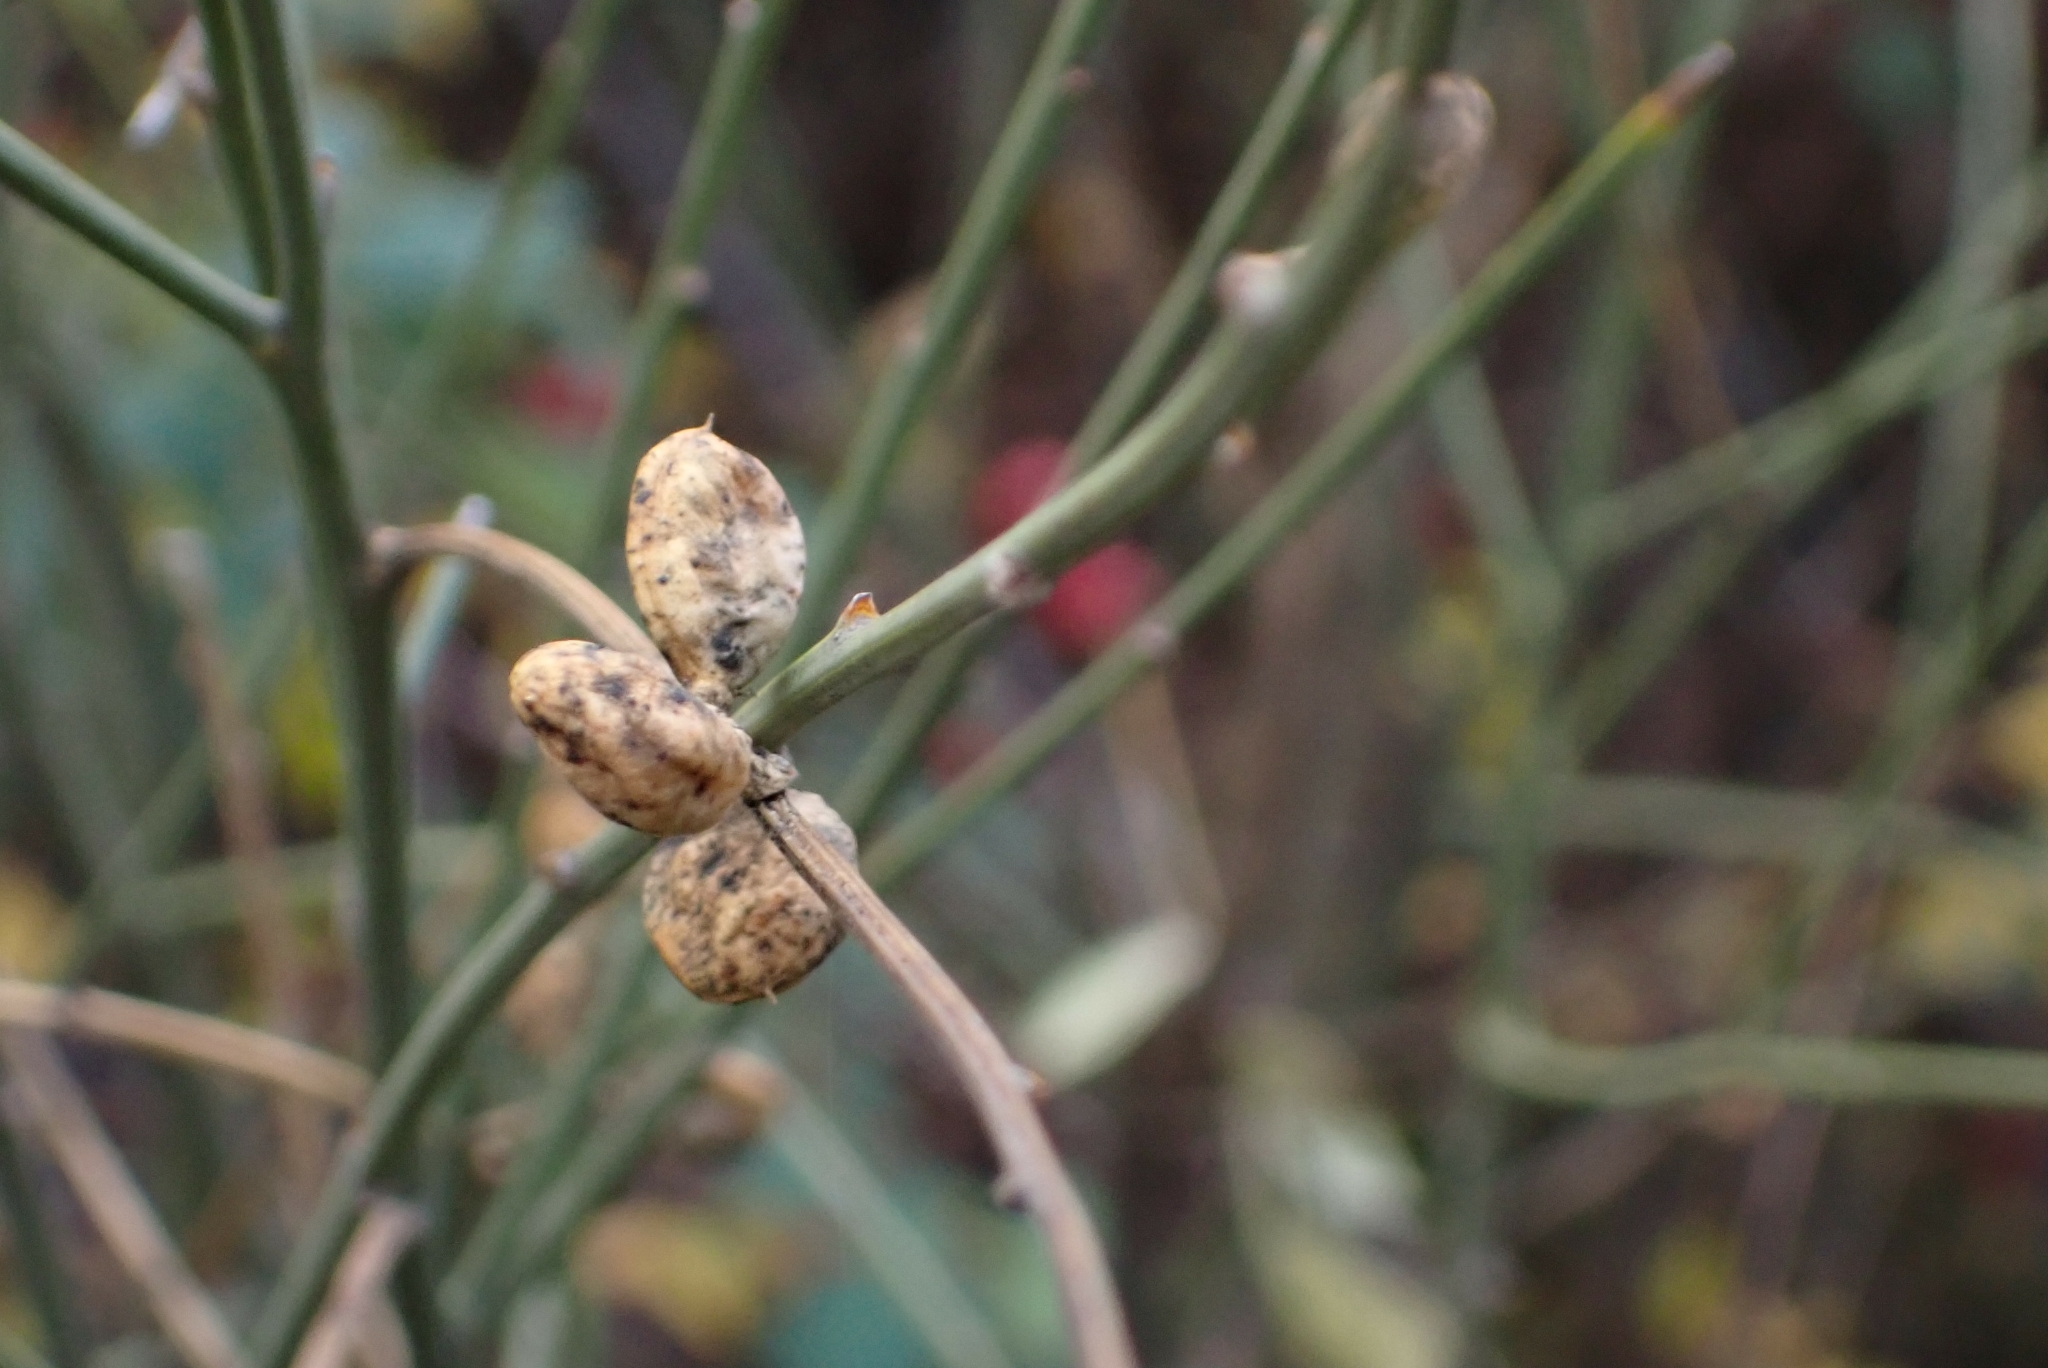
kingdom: Plantae
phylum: Tracheophyta
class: Magnoliopsida
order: Fabales
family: Fabaceae
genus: Retama
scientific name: Retama sphaerocarpa
